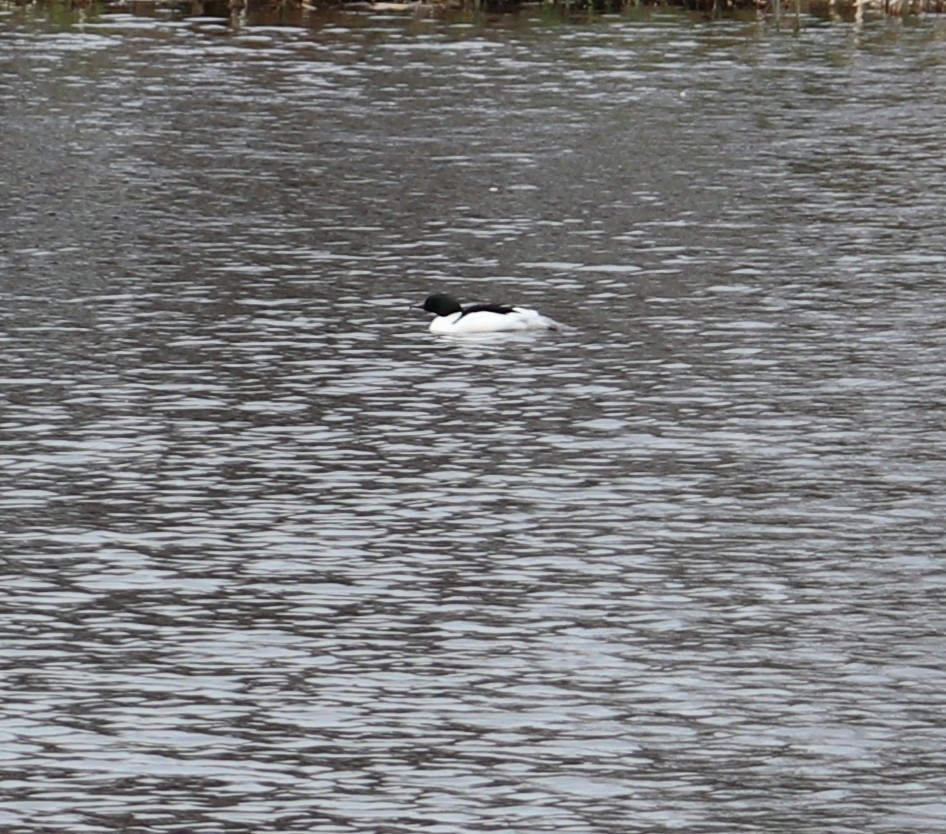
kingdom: Animalia
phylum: Chordata
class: Aves
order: Anseriformes
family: Anatidae
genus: Mergus
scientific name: Mergus merganser
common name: Common merganser
